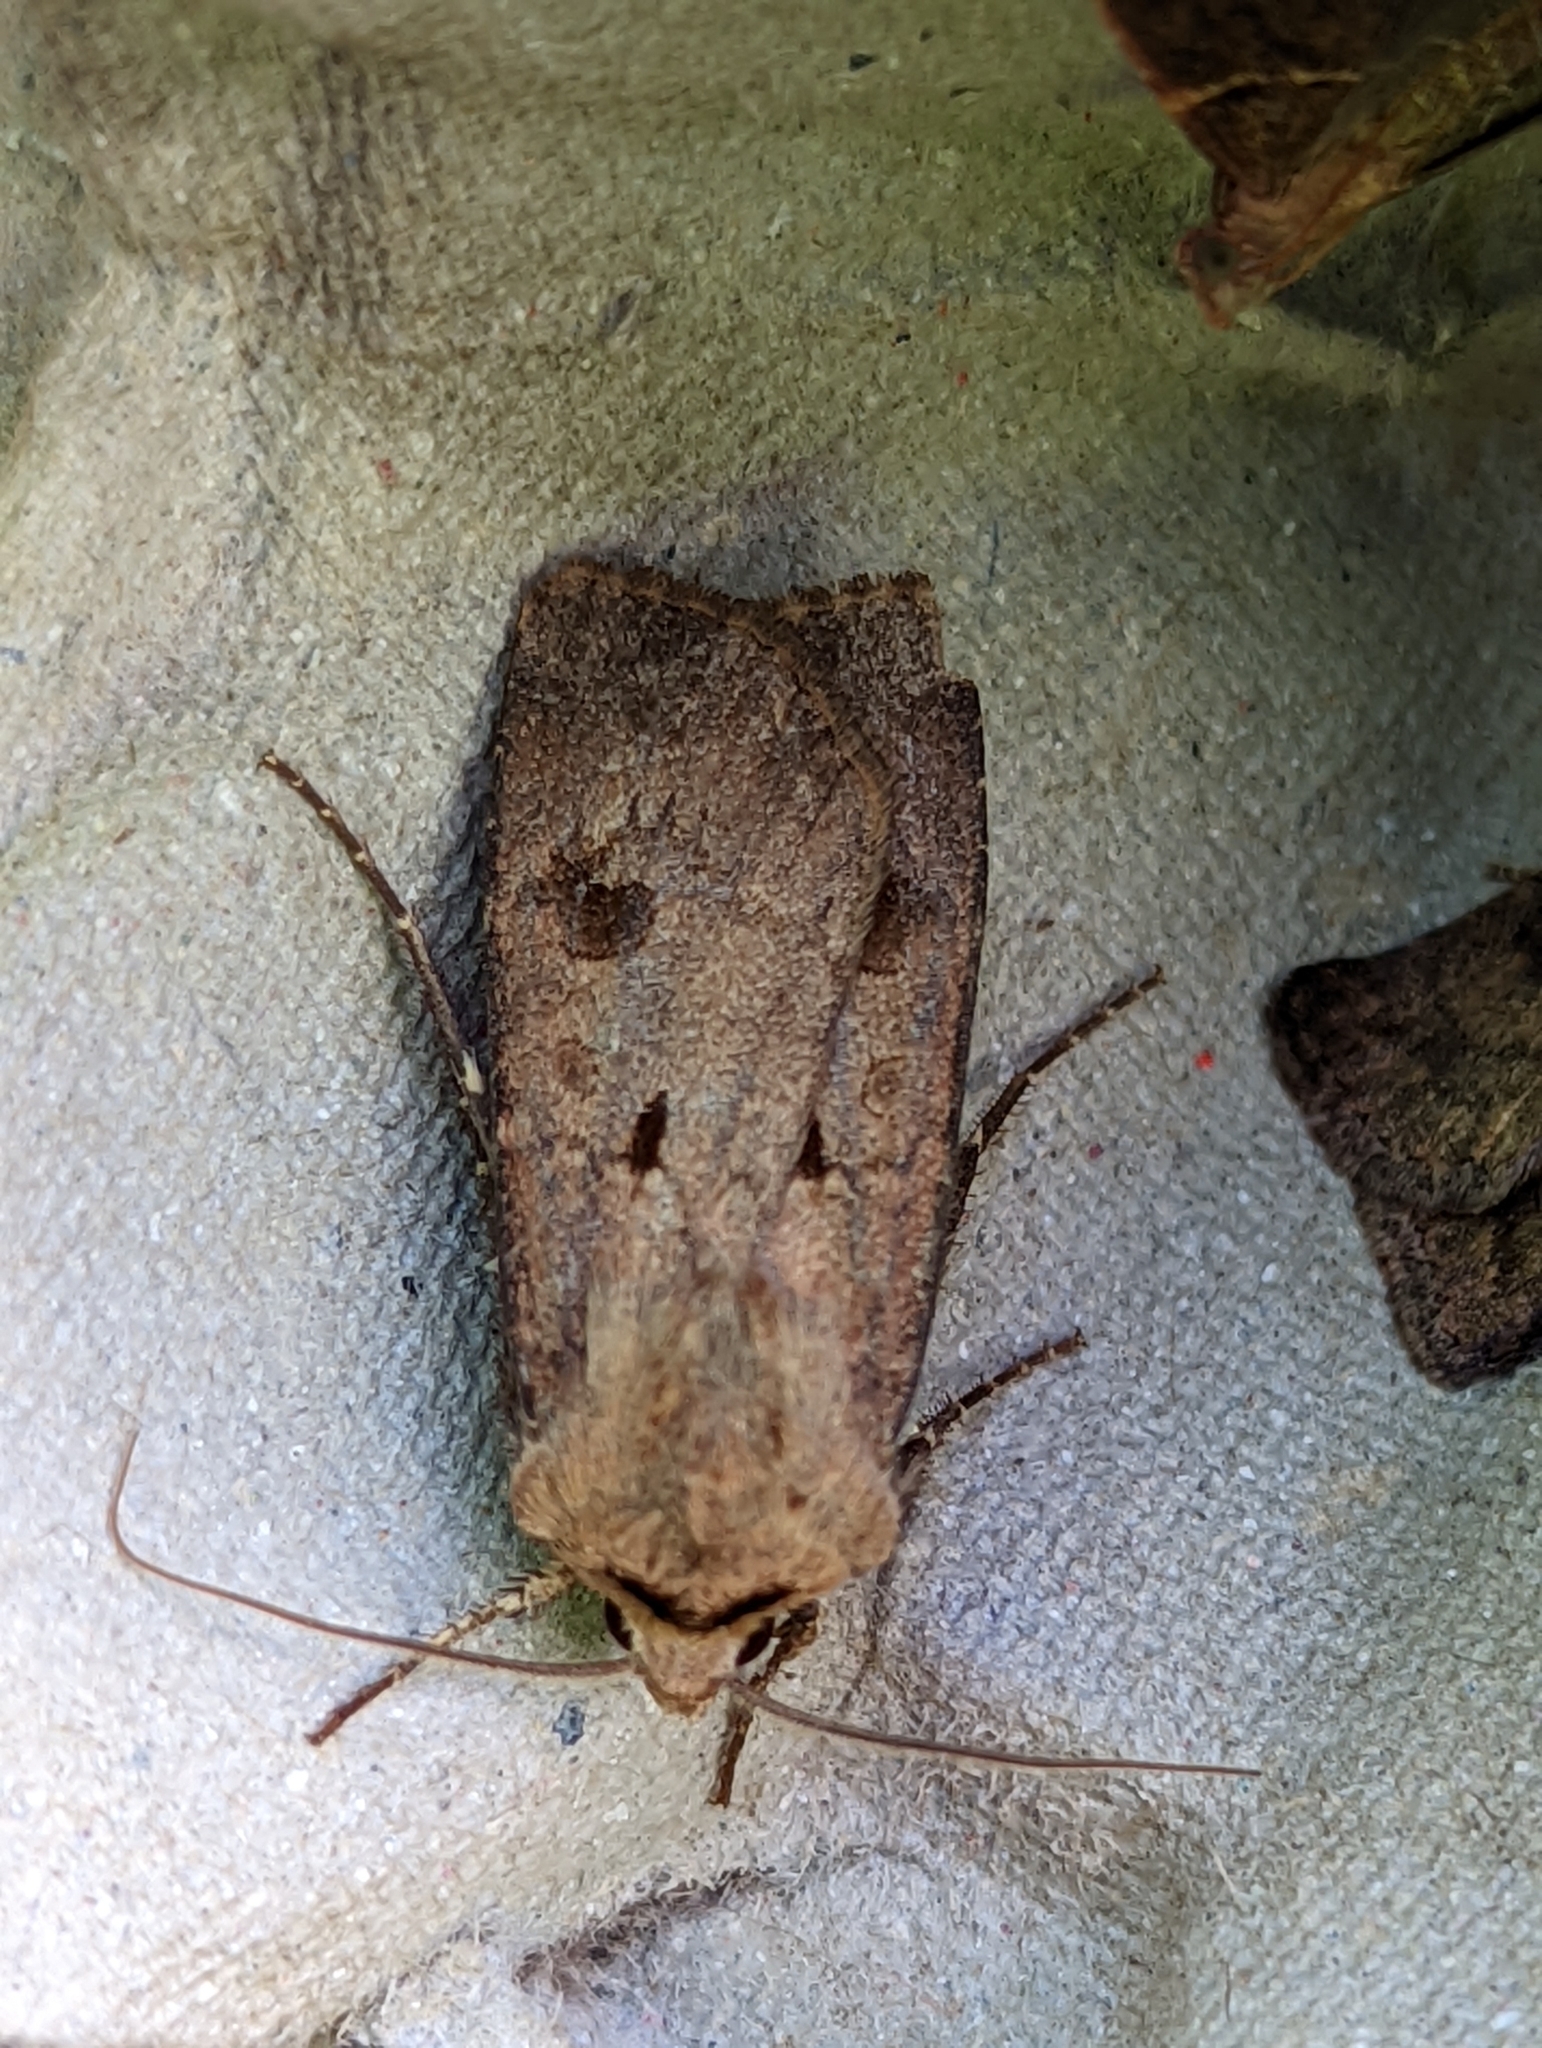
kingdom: Animalia
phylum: Arthropoda
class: Insecta
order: Lepidoptera
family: Noctuidae
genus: Agrotis
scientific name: Agrotis exclamationis
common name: Heart and dart
